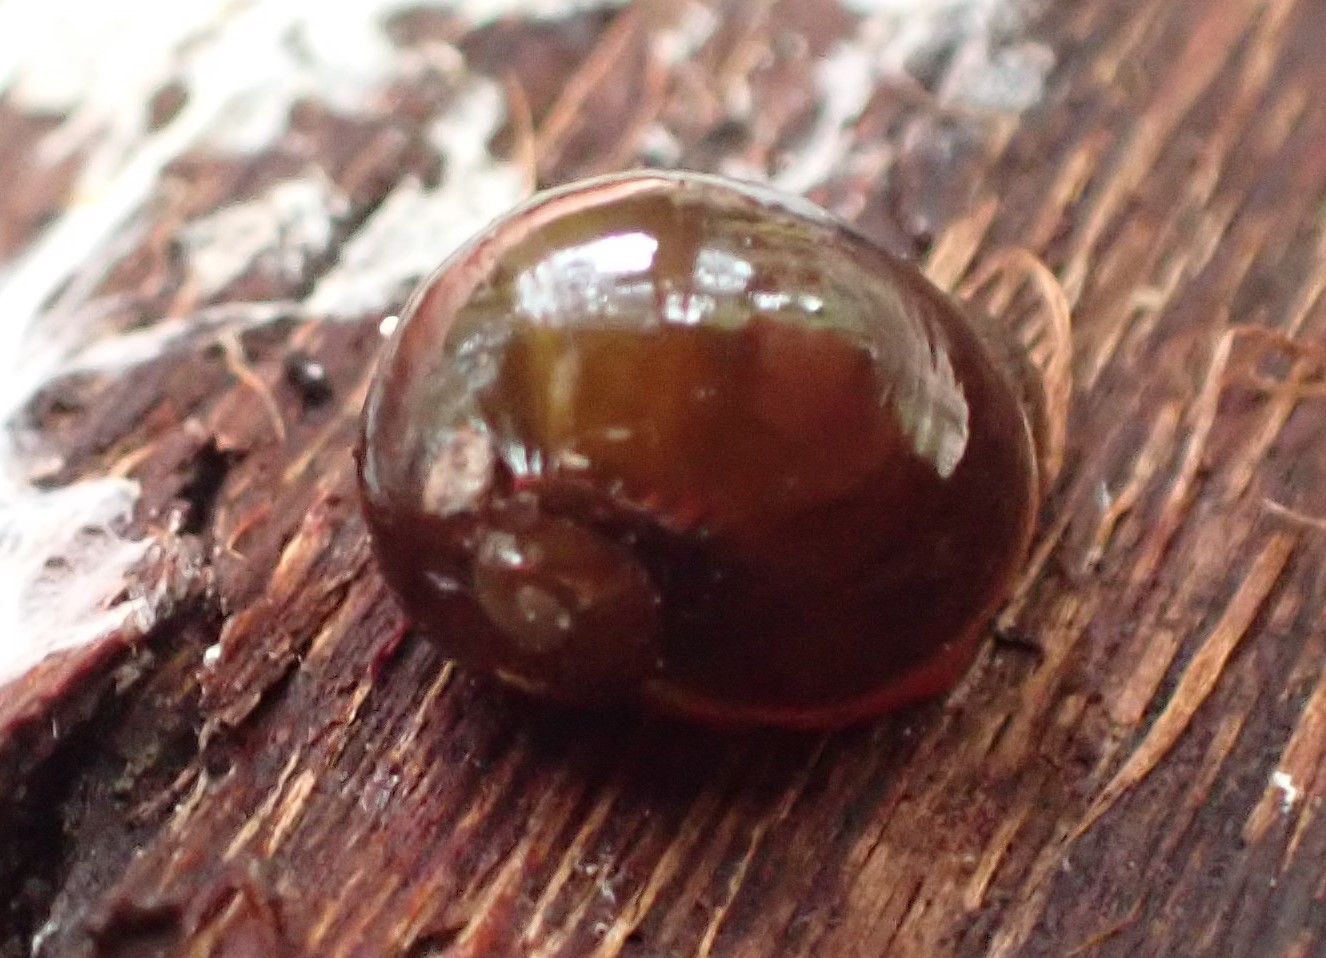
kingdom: Animalia
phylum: Mollusca
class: Gastropoda
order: Stylommatophora
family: Rhytididae
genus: Victaphanta
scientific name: Victaphanta milligani
